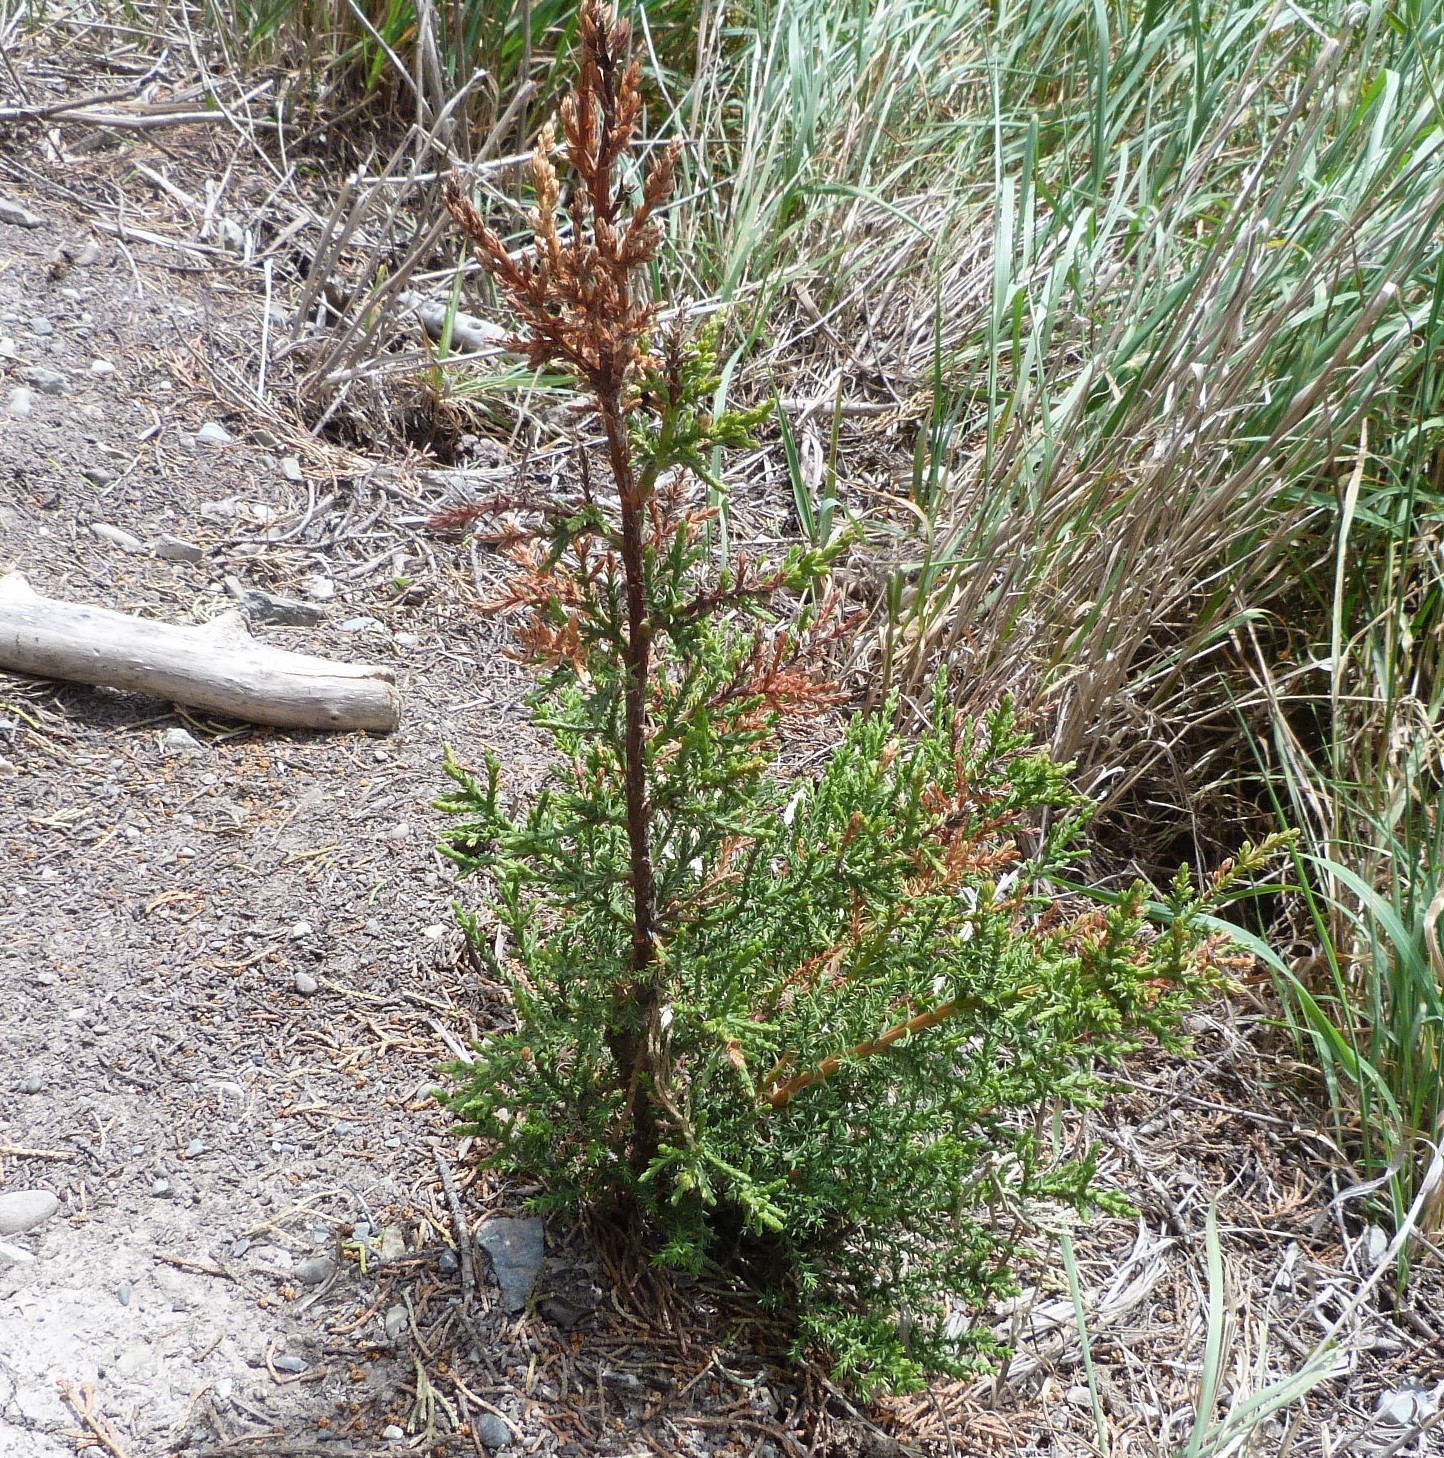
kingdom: Plantae
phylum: Tracheophyta
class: Pinopsida
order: Pinales
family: Cupressaceae
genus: Cupressus
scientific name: Cupressus macrocarpa
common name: Monterey cypress
